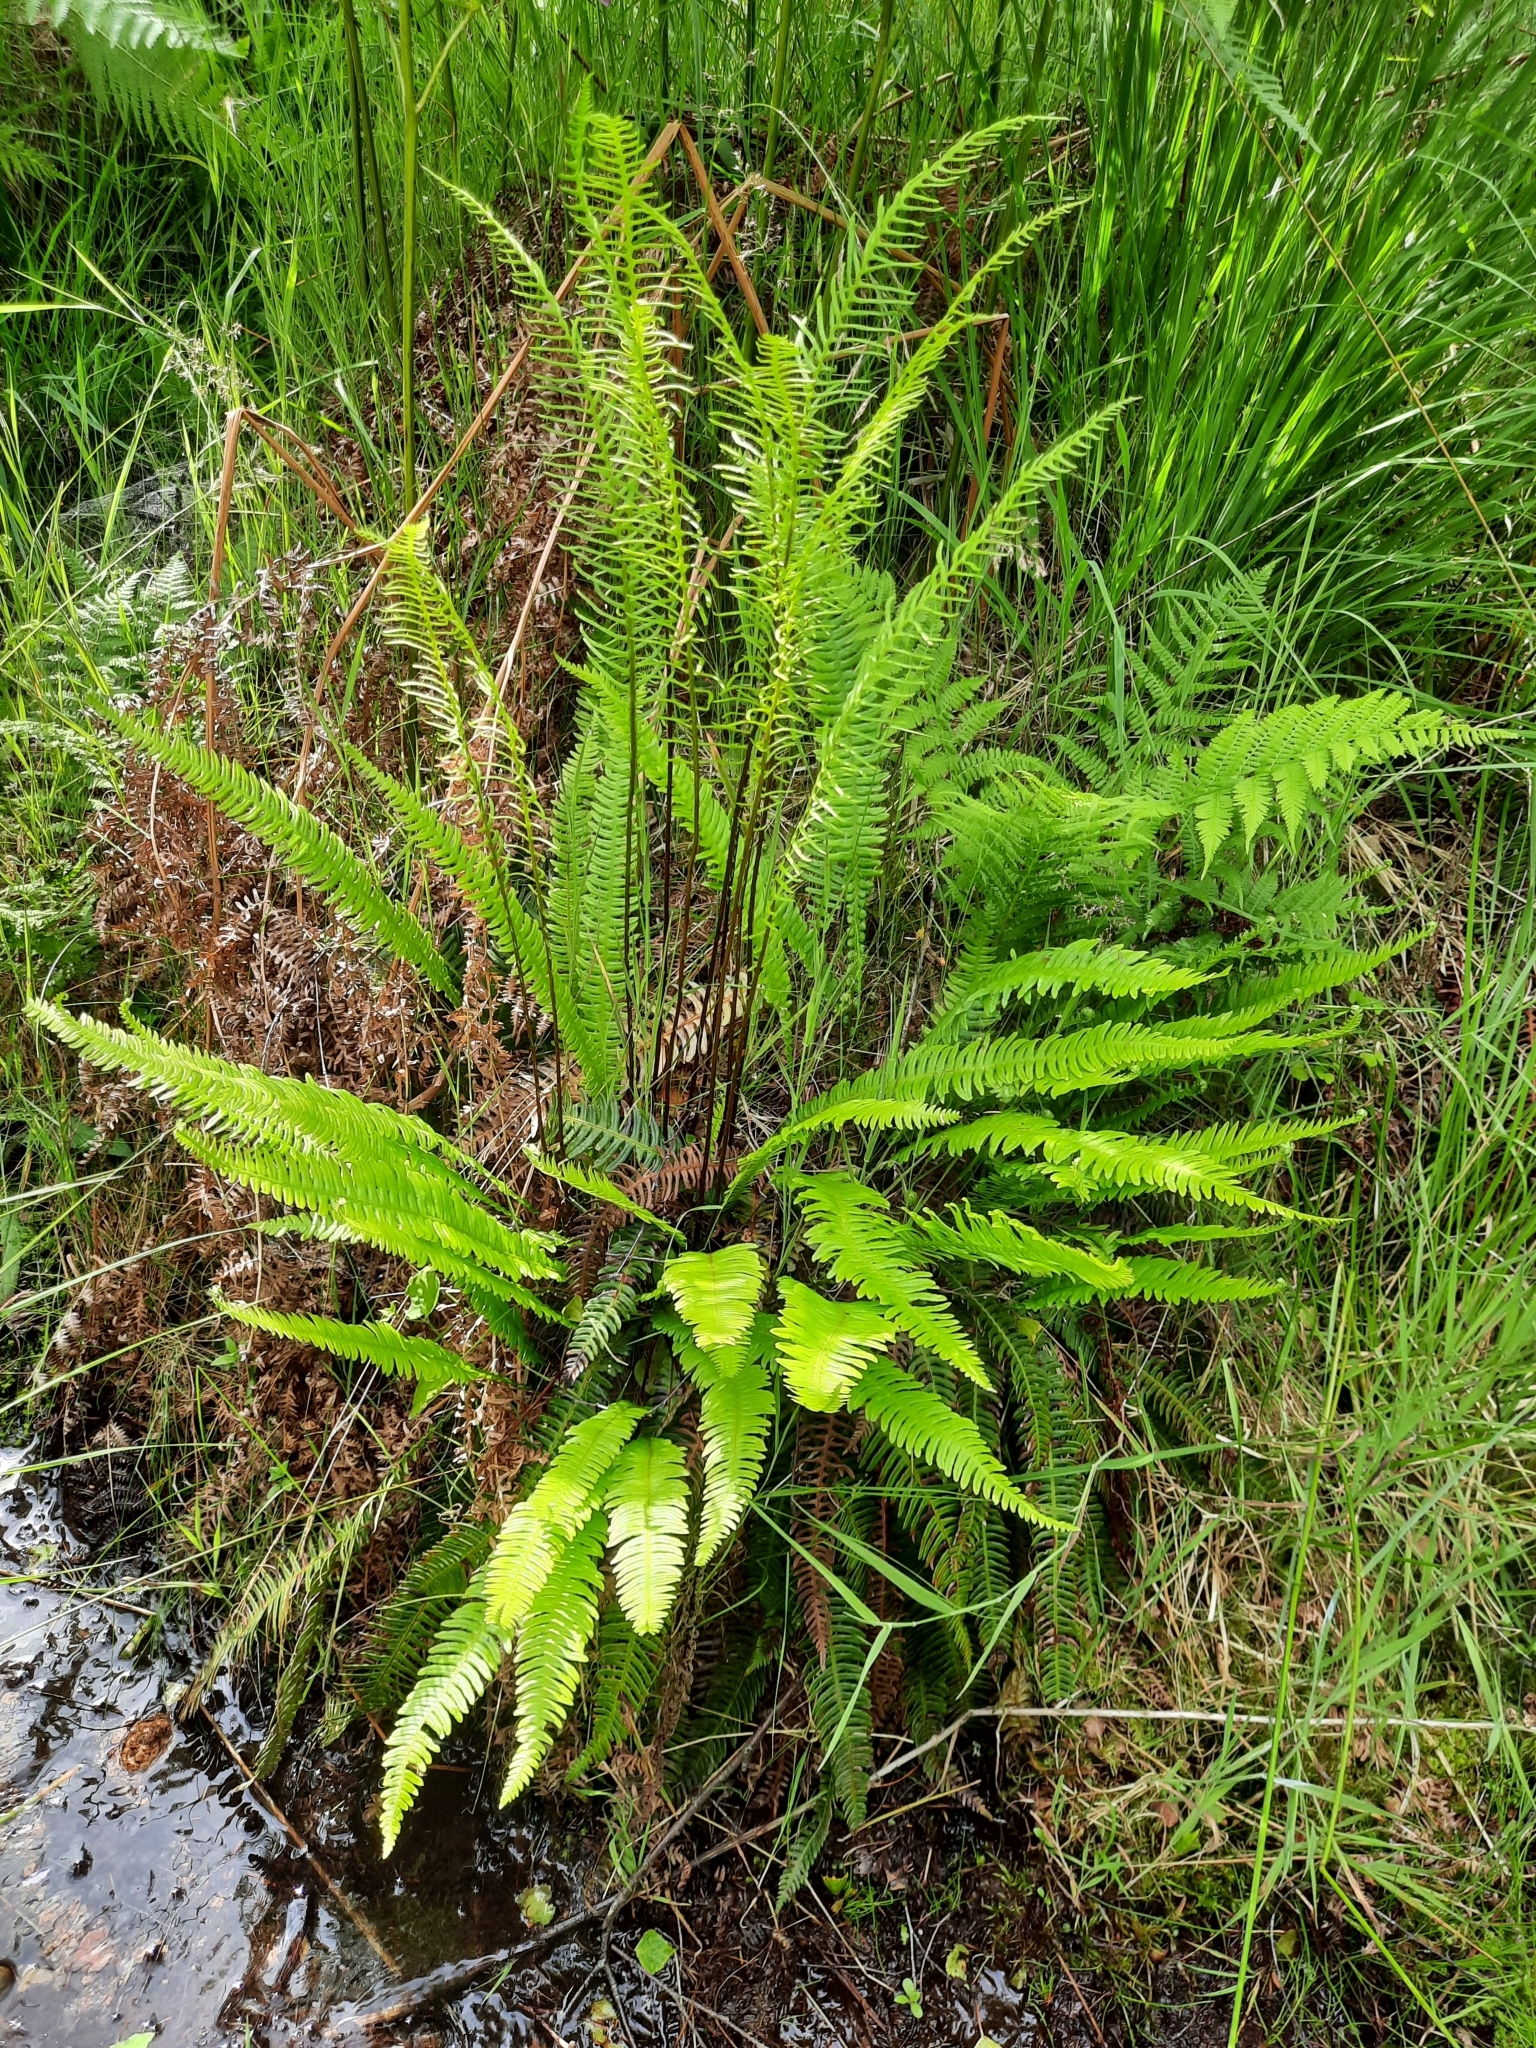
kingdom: Plantae
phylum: Tracheophyta
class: Polypodiopsida
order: Polypodiales
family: Blechnaceae
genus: Struthiopteris
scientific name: Struthiopteris spicant
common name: Deer fern
